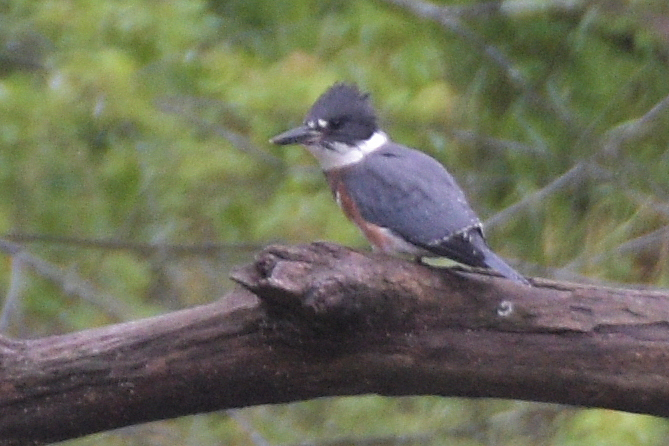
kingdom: Animalia
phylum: Chordata
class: Aves
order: Coraciiformes
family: Alcedinidae
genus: Megaceryle
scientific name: Megaceryle alcyon
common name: Belted kingfisher
